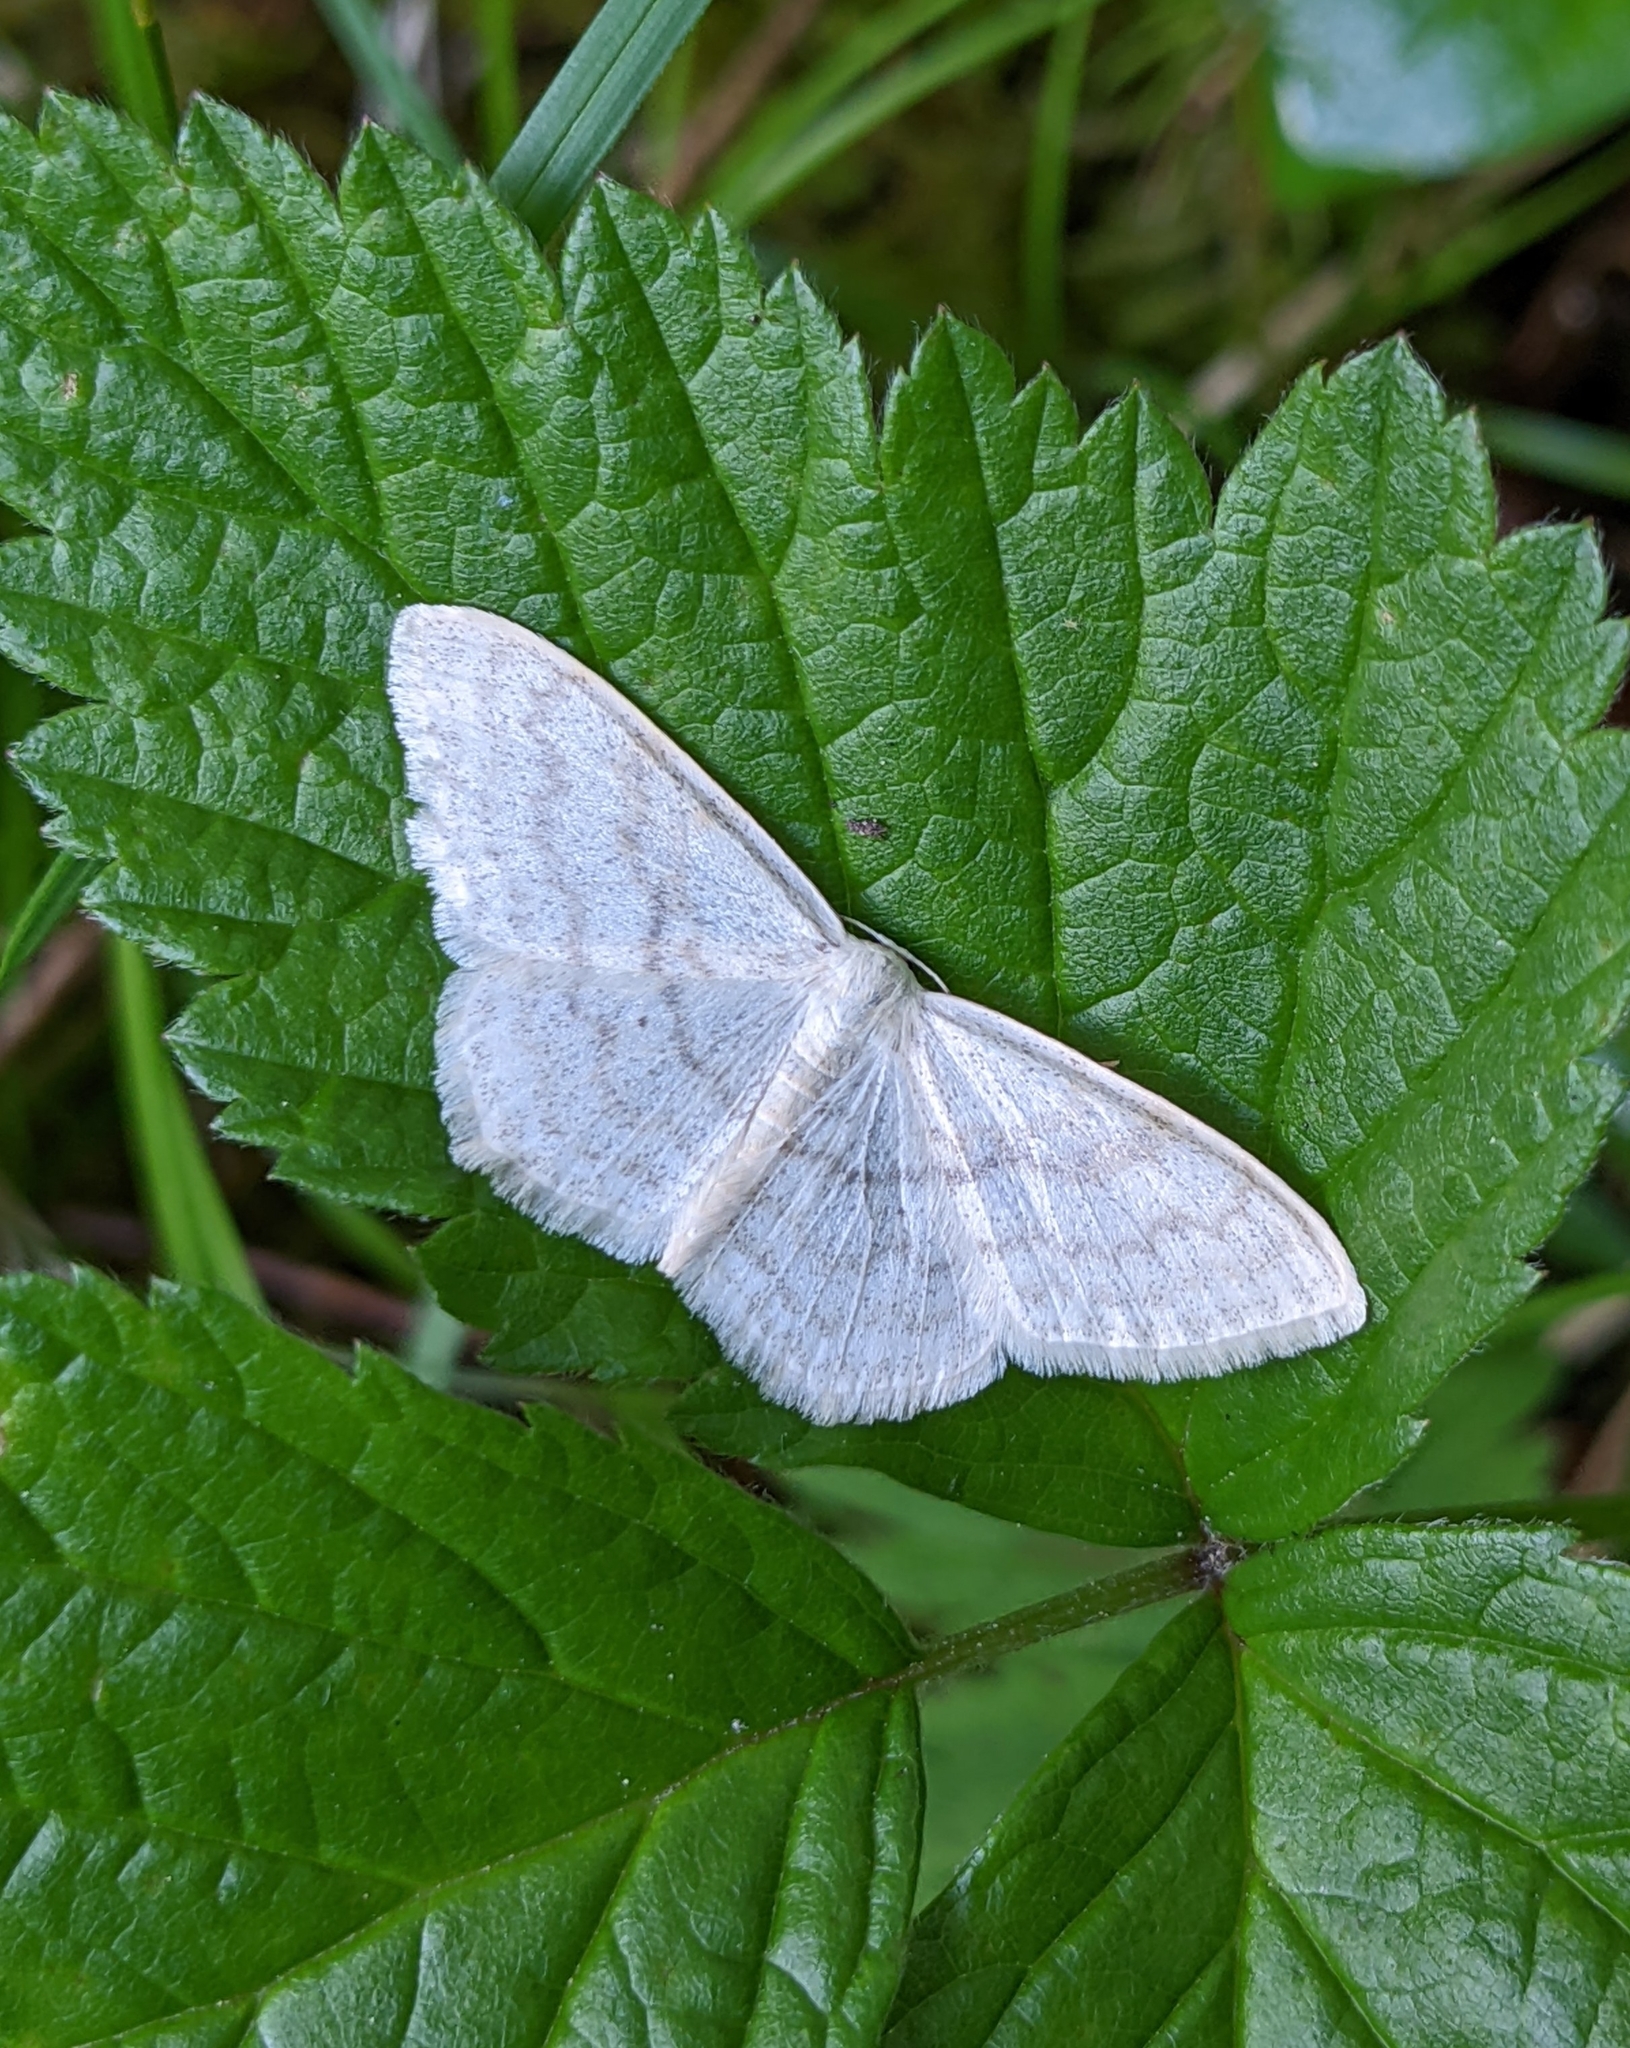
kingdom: Animalia
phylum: Arthropoda
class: Insecta
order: Lepidoptera
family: Geometridae
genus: Scopula
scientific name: Scopula floslactata
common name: Cream wave
